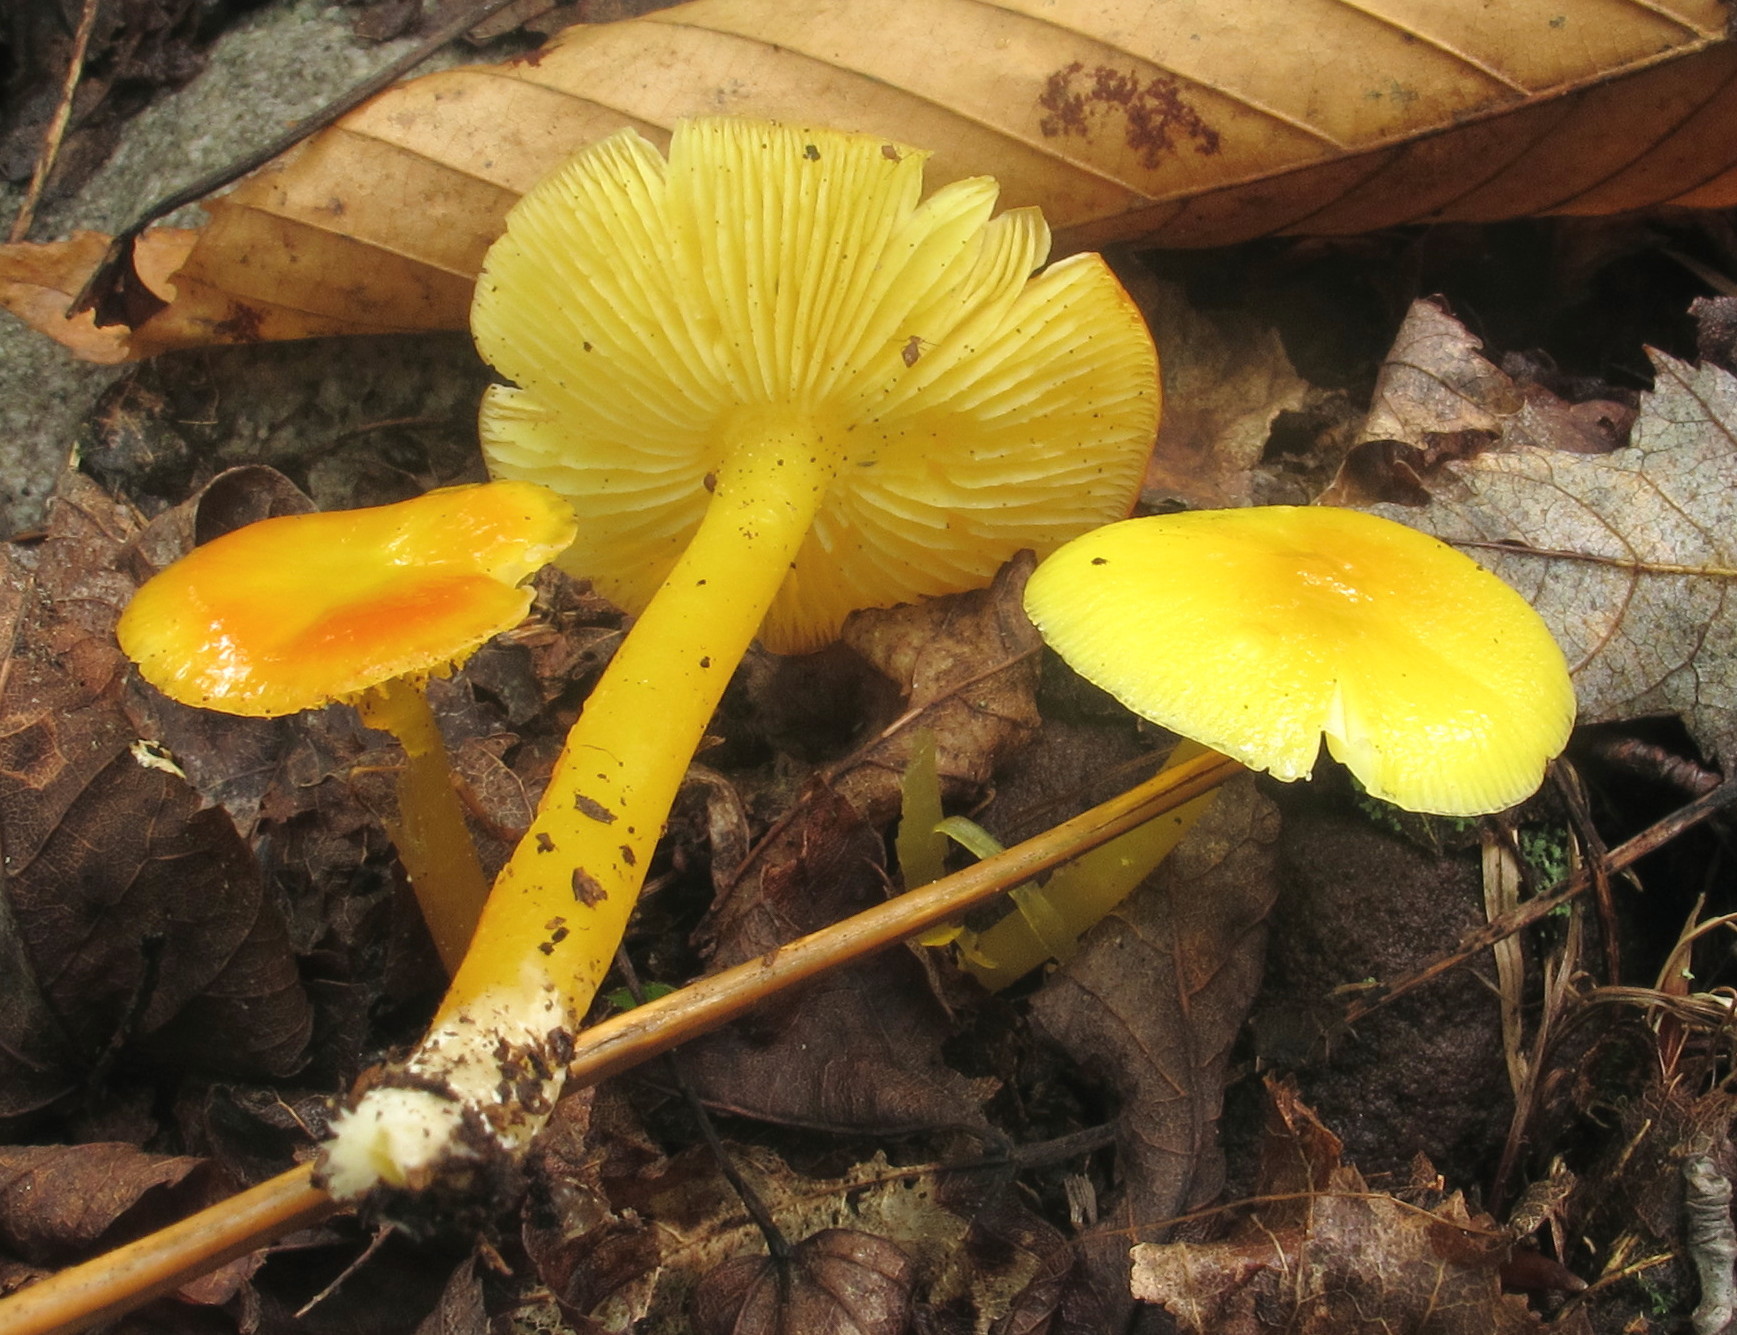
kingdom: Fungi
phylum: Basidiomycota
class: Agaricomycetes
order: Agaricales
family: Hygrophoraceae
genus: Hygrocybe
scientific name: Hygrocybe flavescens
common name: Golden waxy cap
